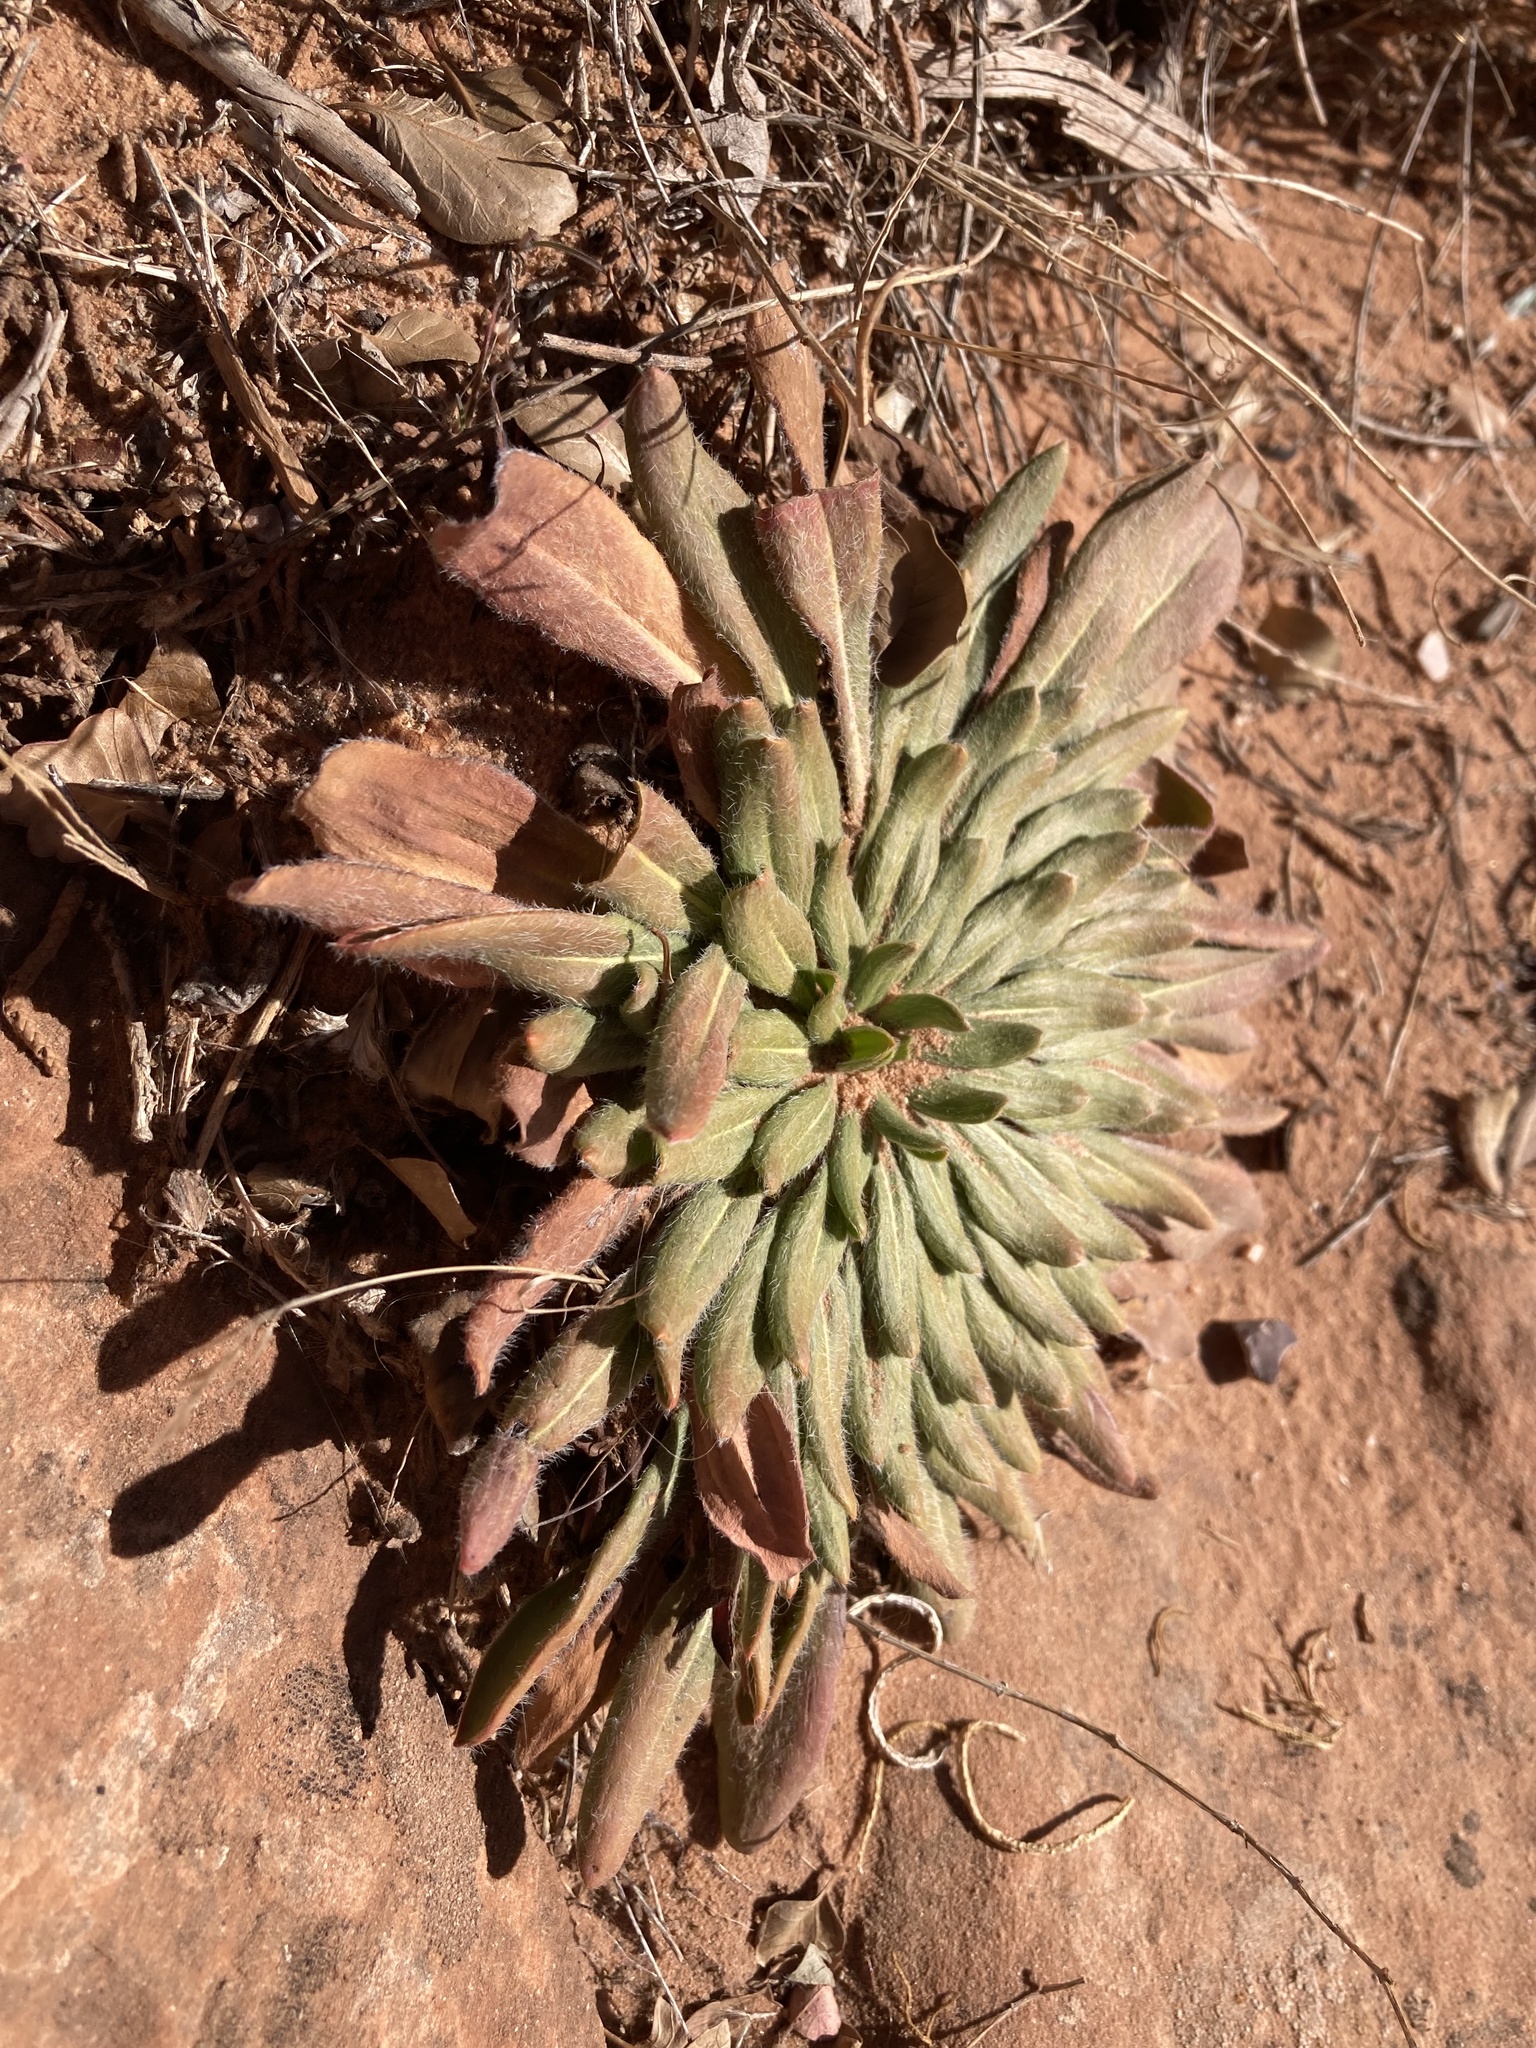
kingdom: Plantae
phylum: Tracheophyta
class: Magnoliopsida
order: Caryophyllales
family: Polygonaceae
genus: Eriogonum
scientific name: Eriogonum alatum
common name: Winged eriogonum
